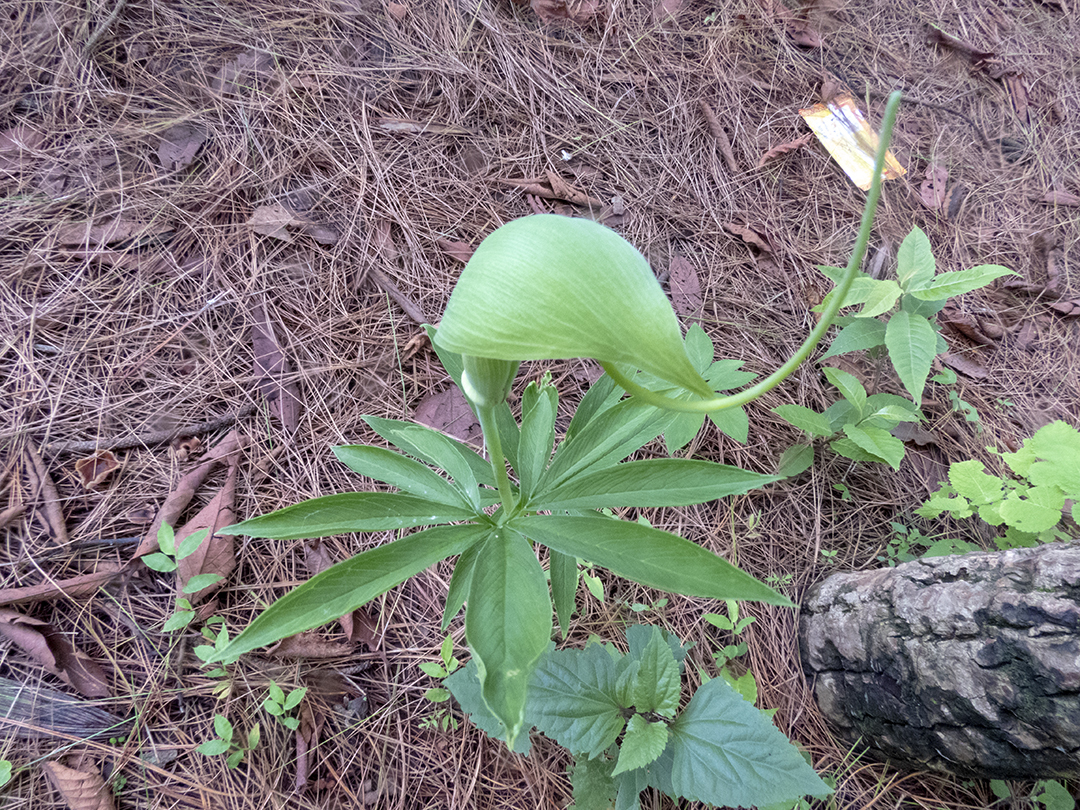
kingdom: Plantae
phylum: Tracheophyta
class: Liliopsida
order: Alismatales
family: Araceae
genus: Arisaema
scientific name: Arisaema tortuosum
